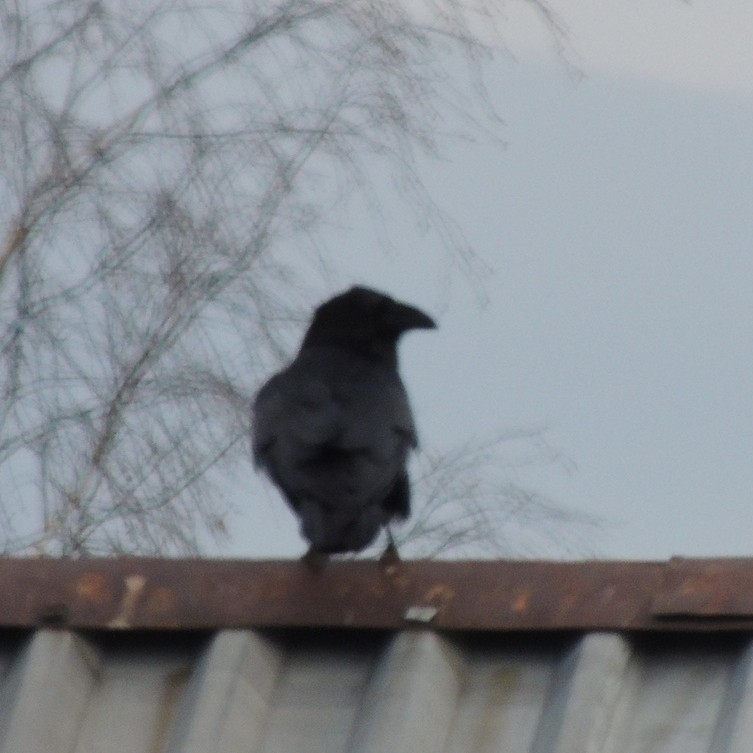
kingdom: Animalia
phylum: Chordata
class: Aves
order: Passeriformes
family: Corvidae
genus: Corvus
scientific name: Corvus corax
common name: Common raven
